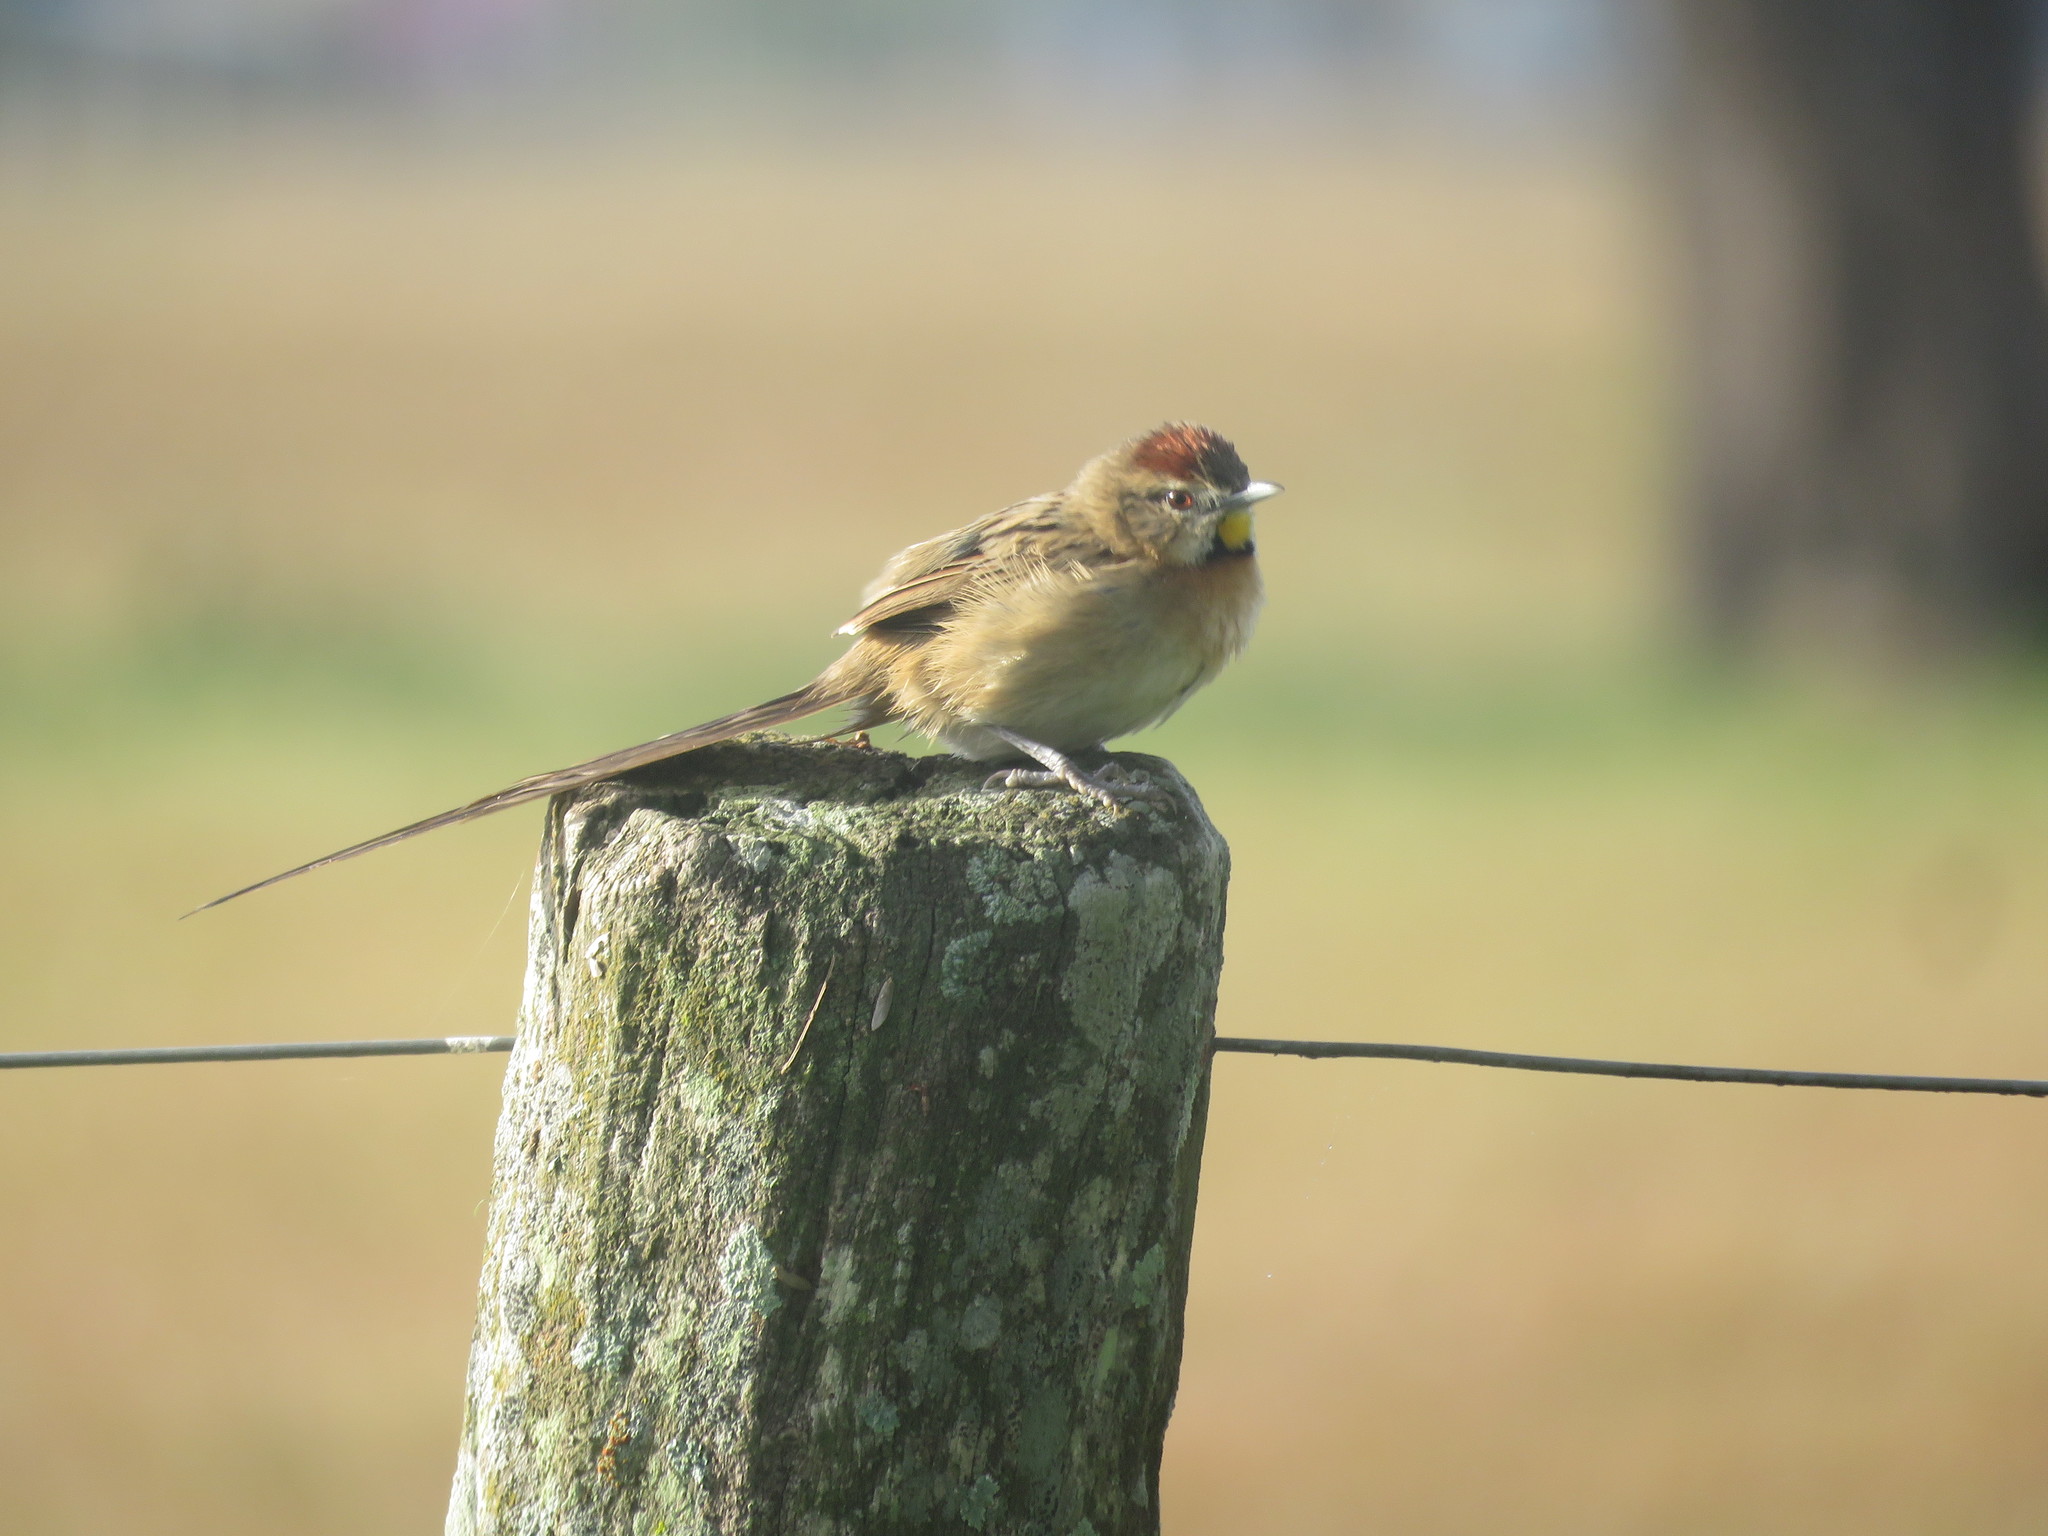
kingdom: Animalia
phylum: Chordata
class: Aves
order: Passeriformes
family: Furnariidae
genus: Schoeniophylax
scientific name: Schoeniophylax phryganophilus
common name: Chotoy spinetail
